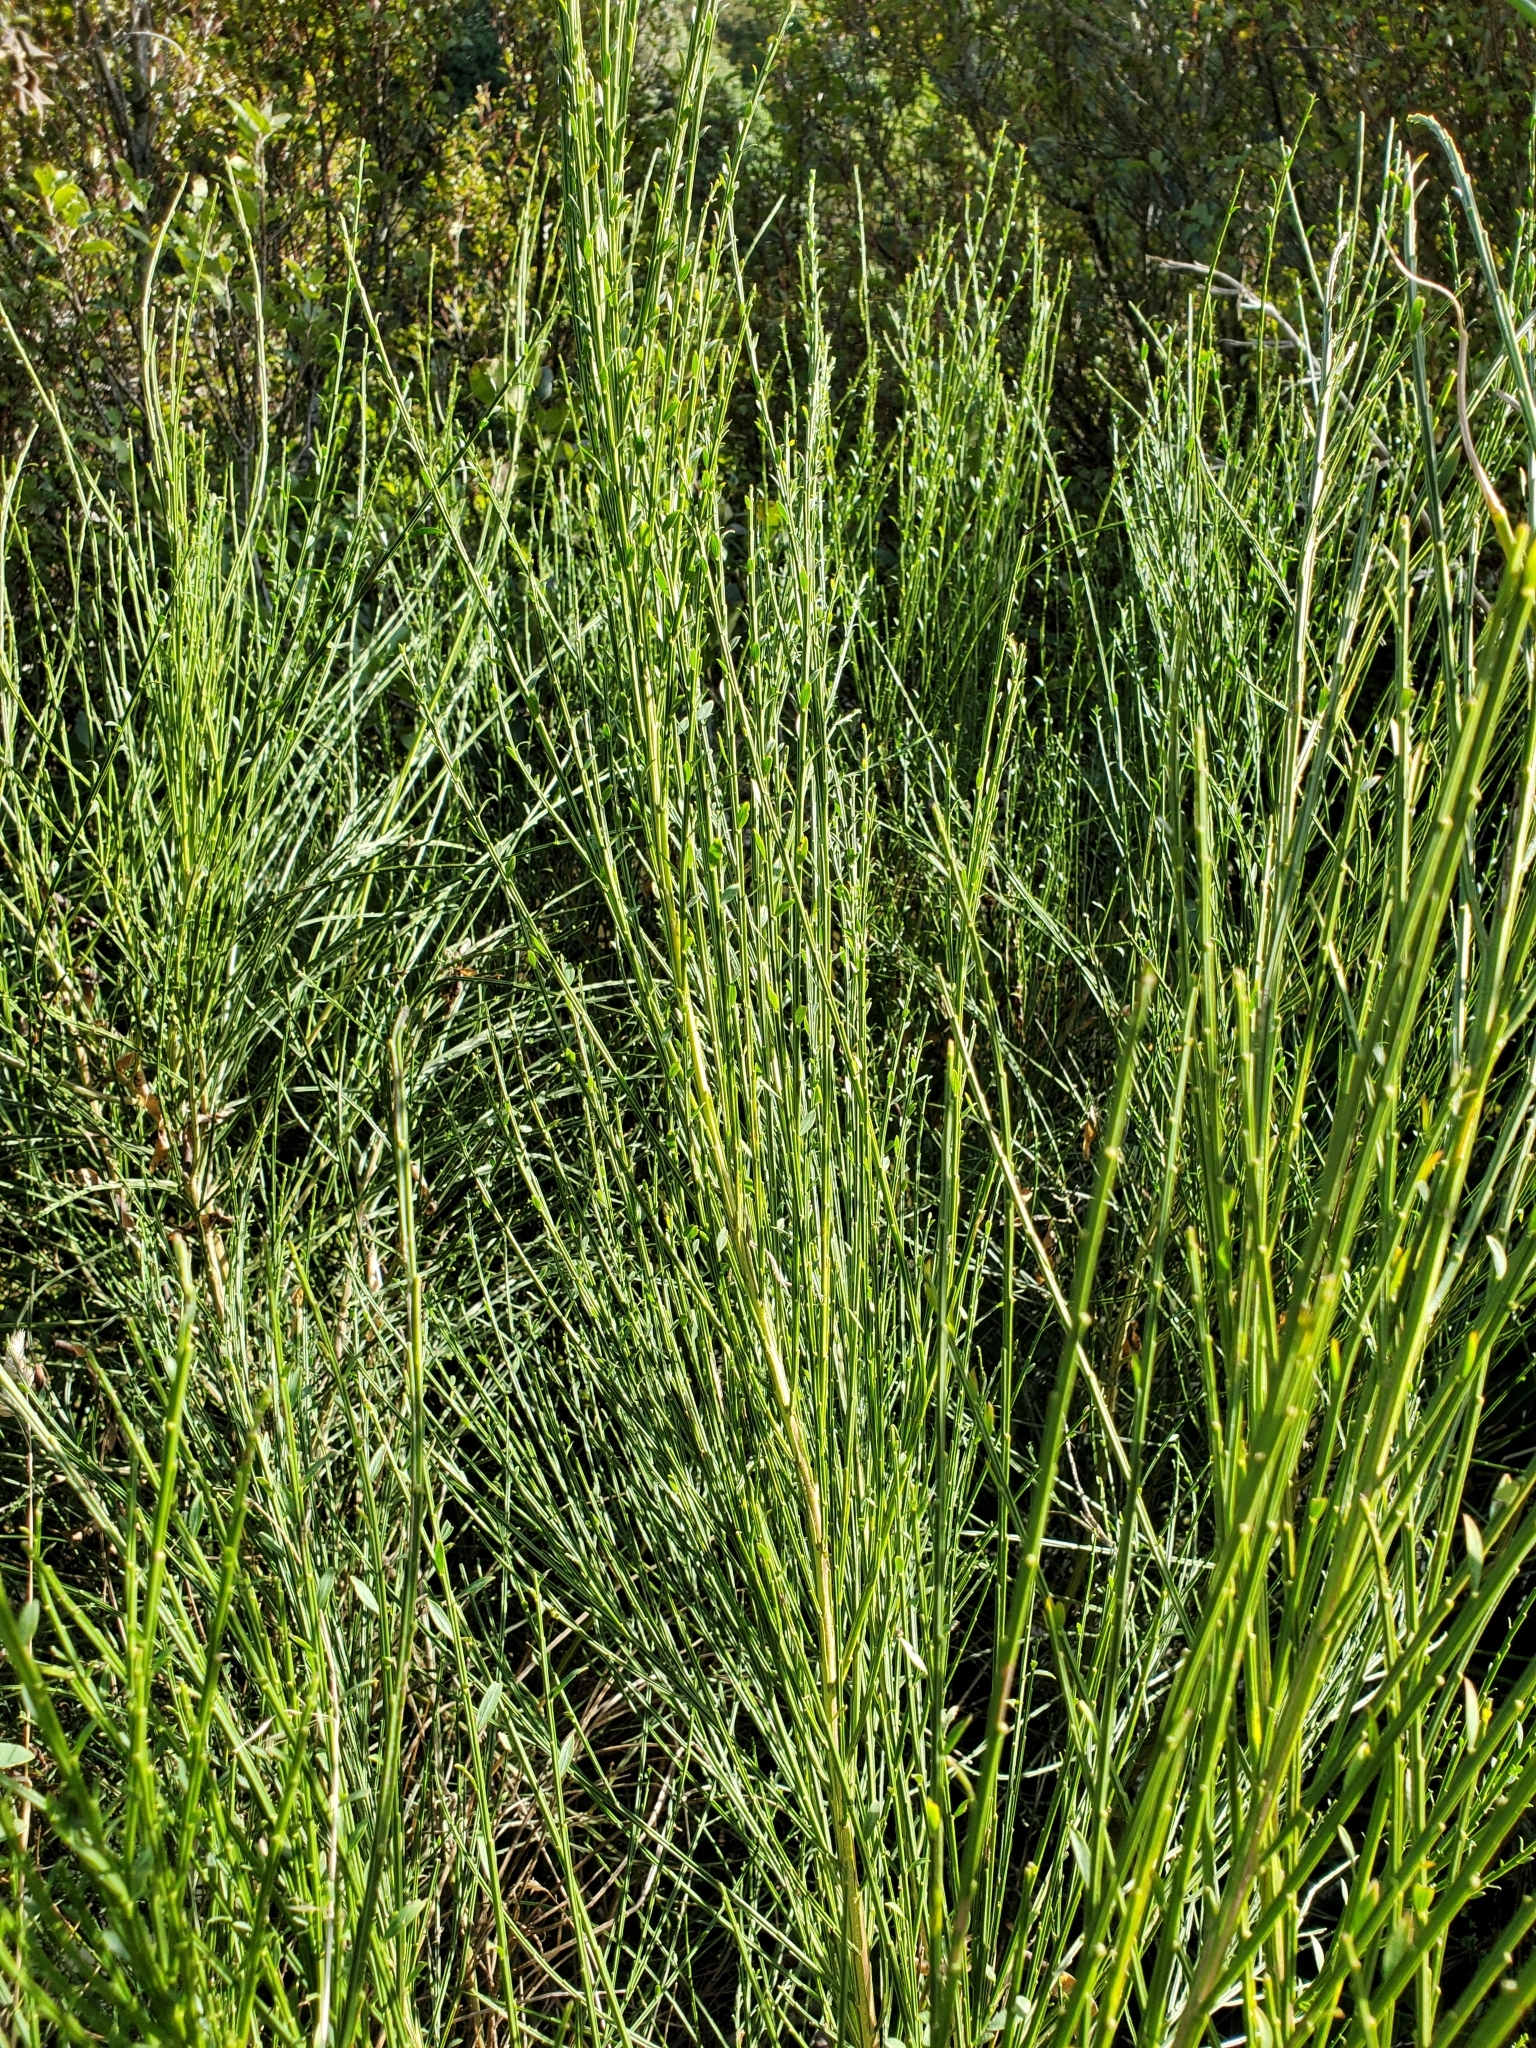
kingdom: Plantae
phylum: Tracheophyta
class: Magnoliopsida
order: Fabales
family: Fabaceae
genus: Cytisus
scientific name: Cytisus scoparius
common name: Scotch broom
